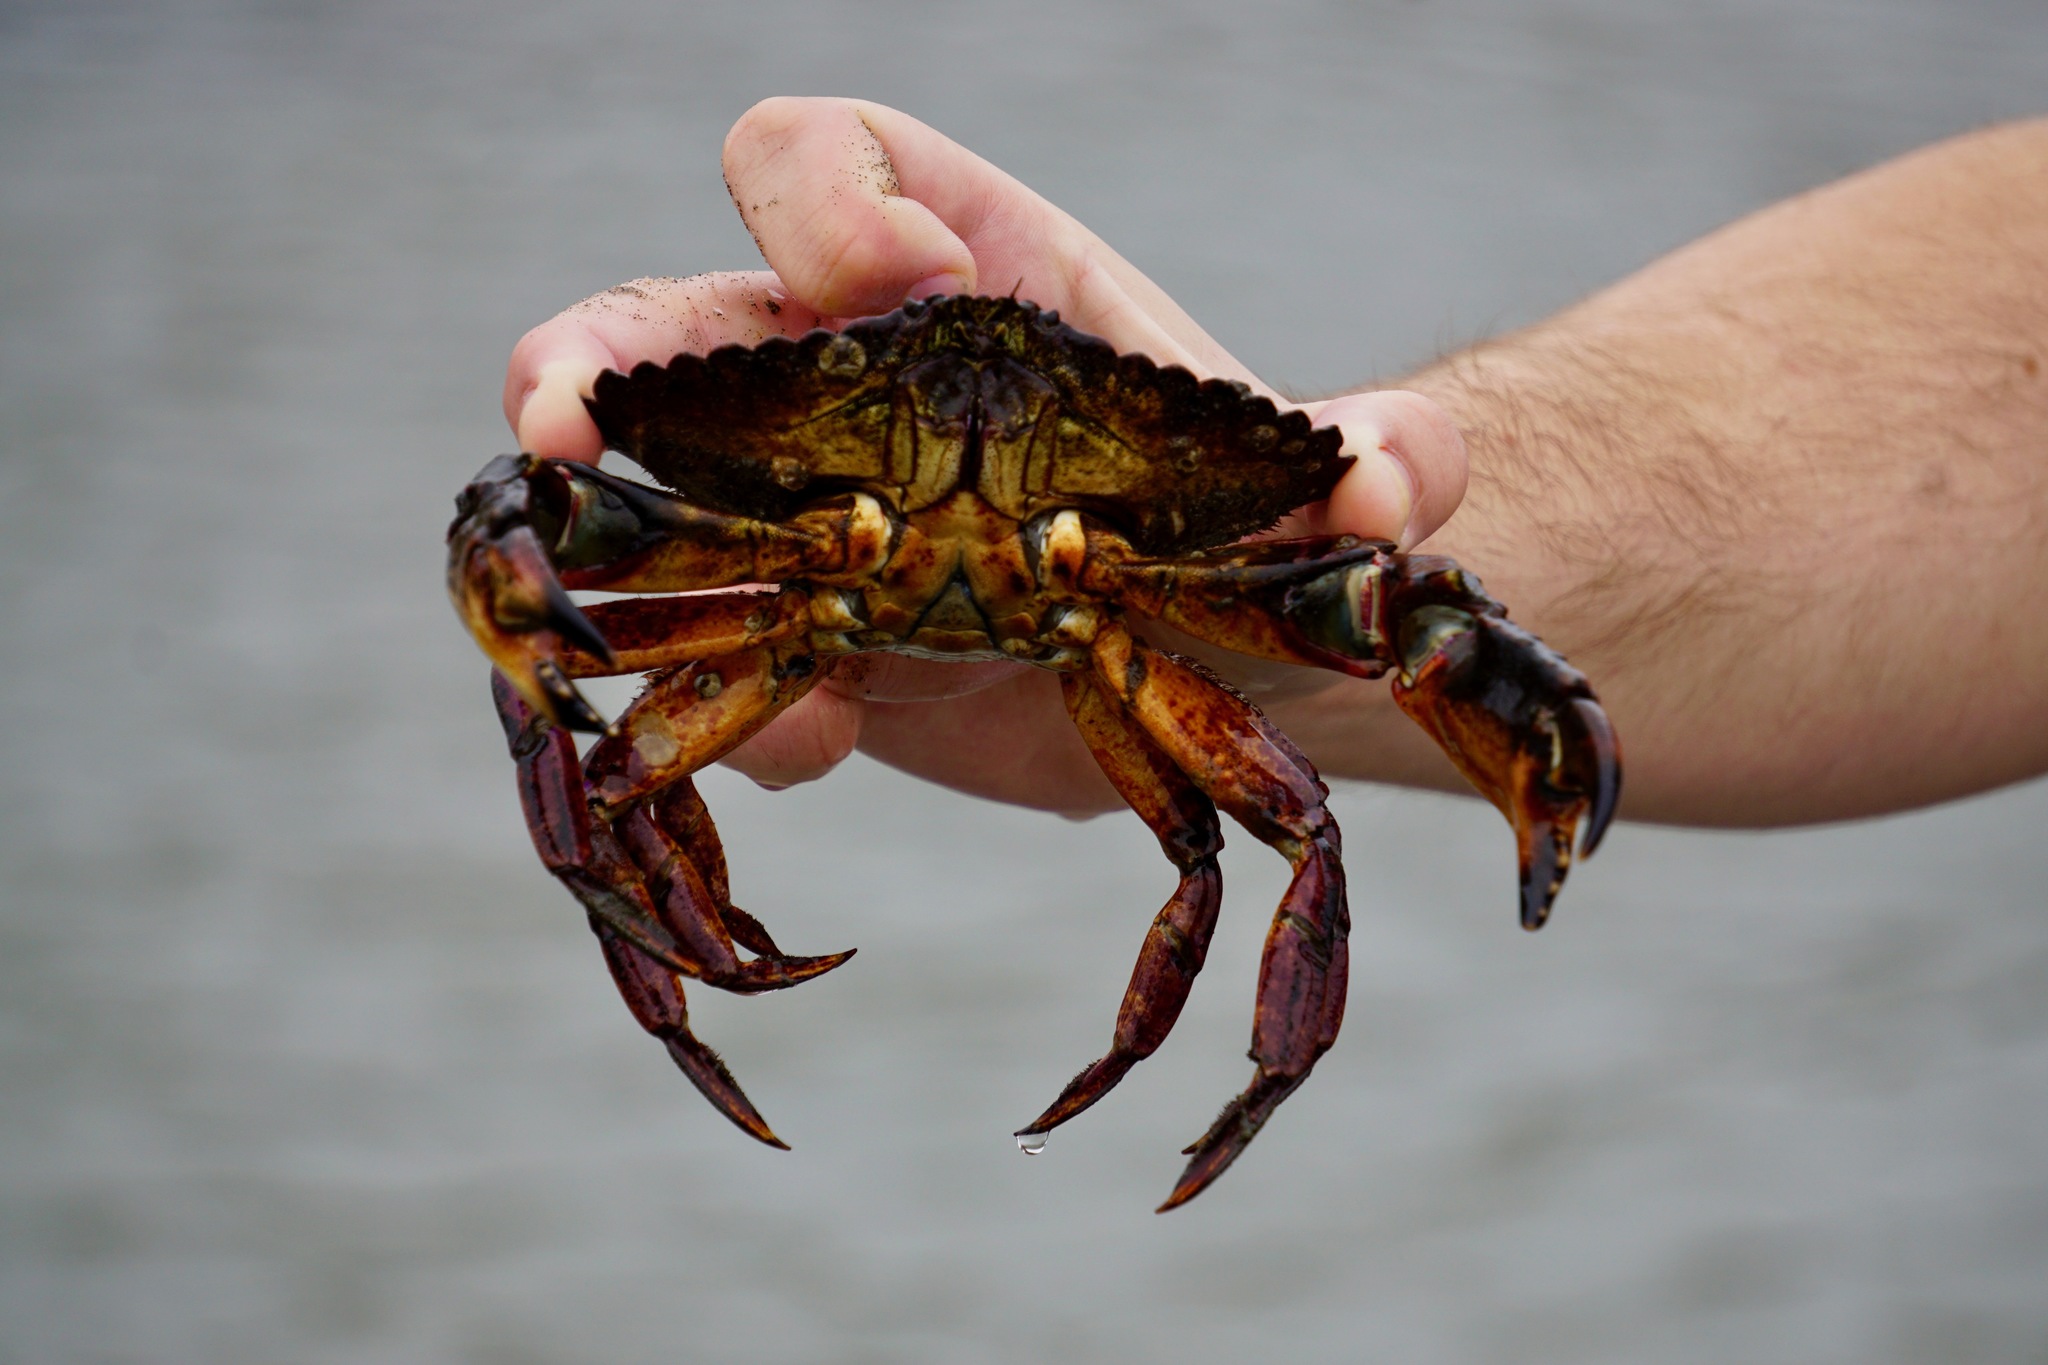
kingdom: Animalia
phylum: Arthropoda
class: Malacostraca
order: Decapoda
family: Cancridae
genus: Cancer
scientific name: Cancer productus
